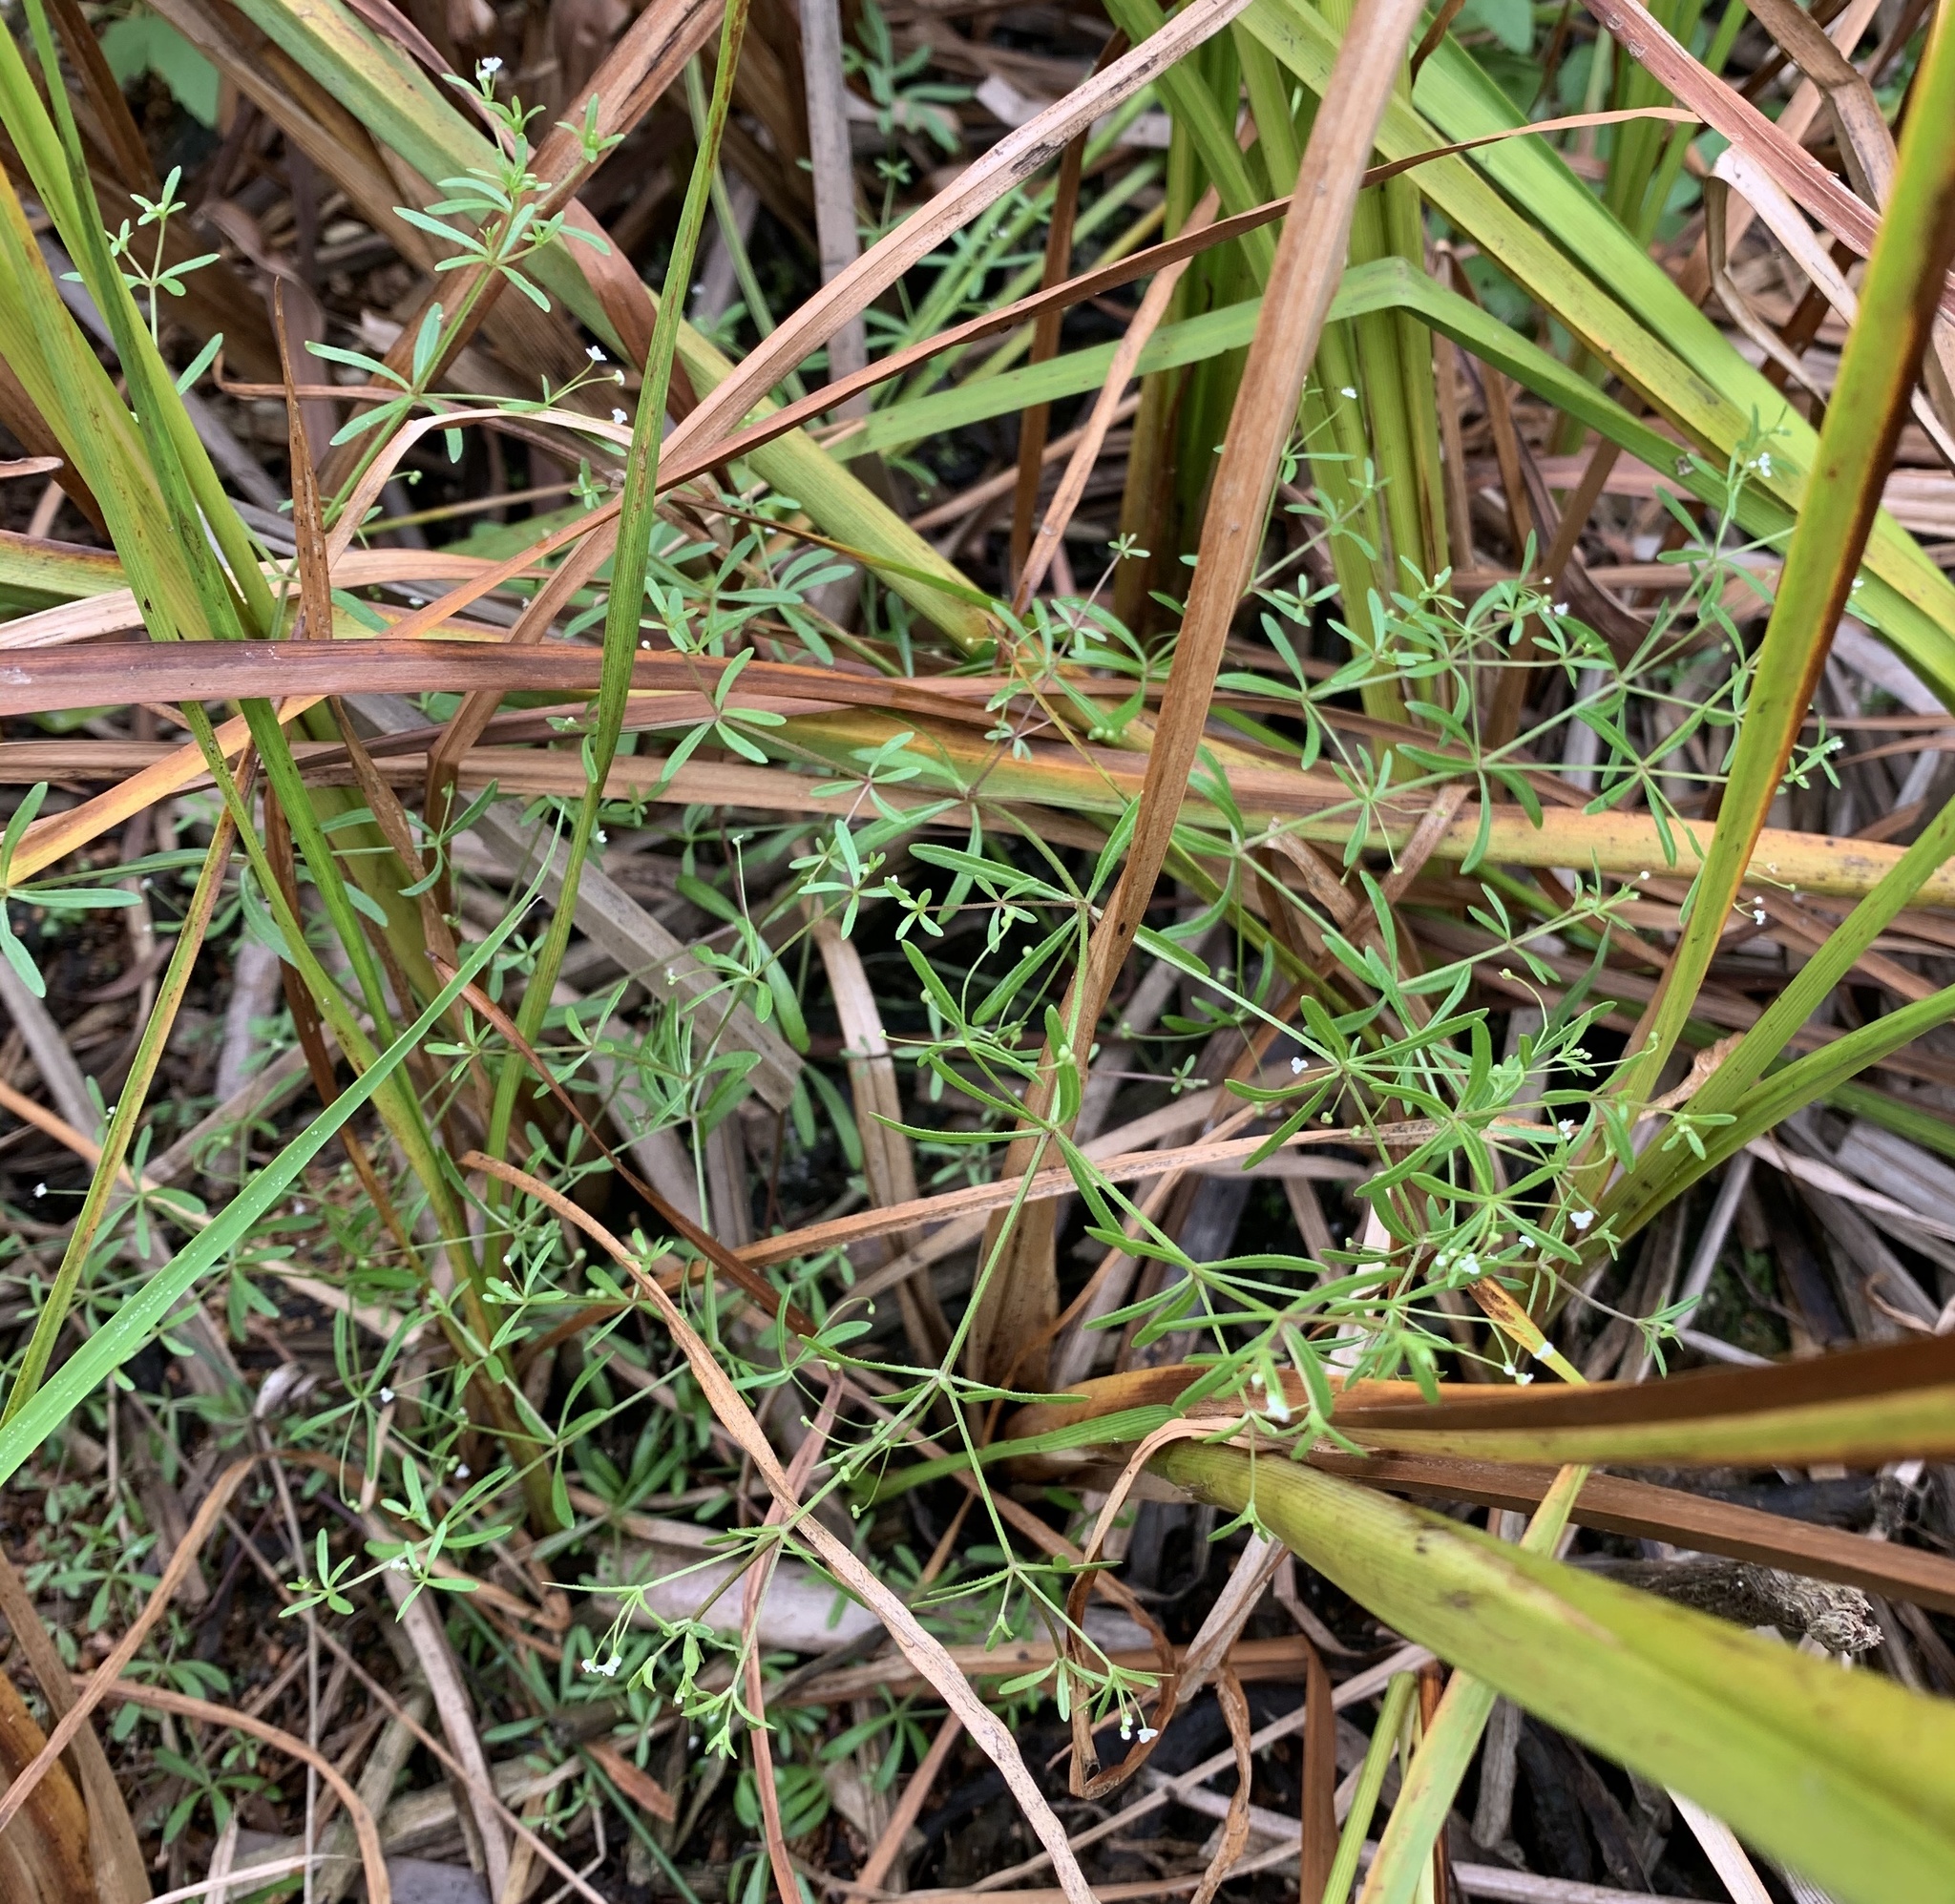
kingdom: Plantae
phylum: Tracheophyta
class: Magnoliopsida
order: Gentianales
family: Rubiaceae
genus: Galium
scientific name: Galium trifidum
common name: Small bedstraw
